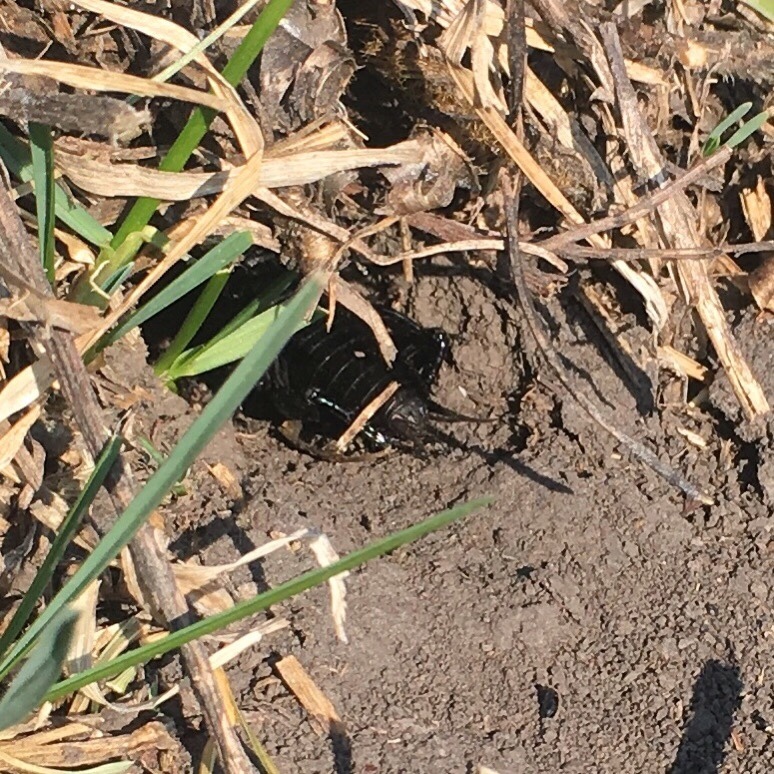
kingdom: Animalia
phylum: Arthropoda
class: Insecta
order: Orthoptera
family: Gryllidae
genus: Gryllus
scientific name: Gryllus campestris
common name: Field cricket
